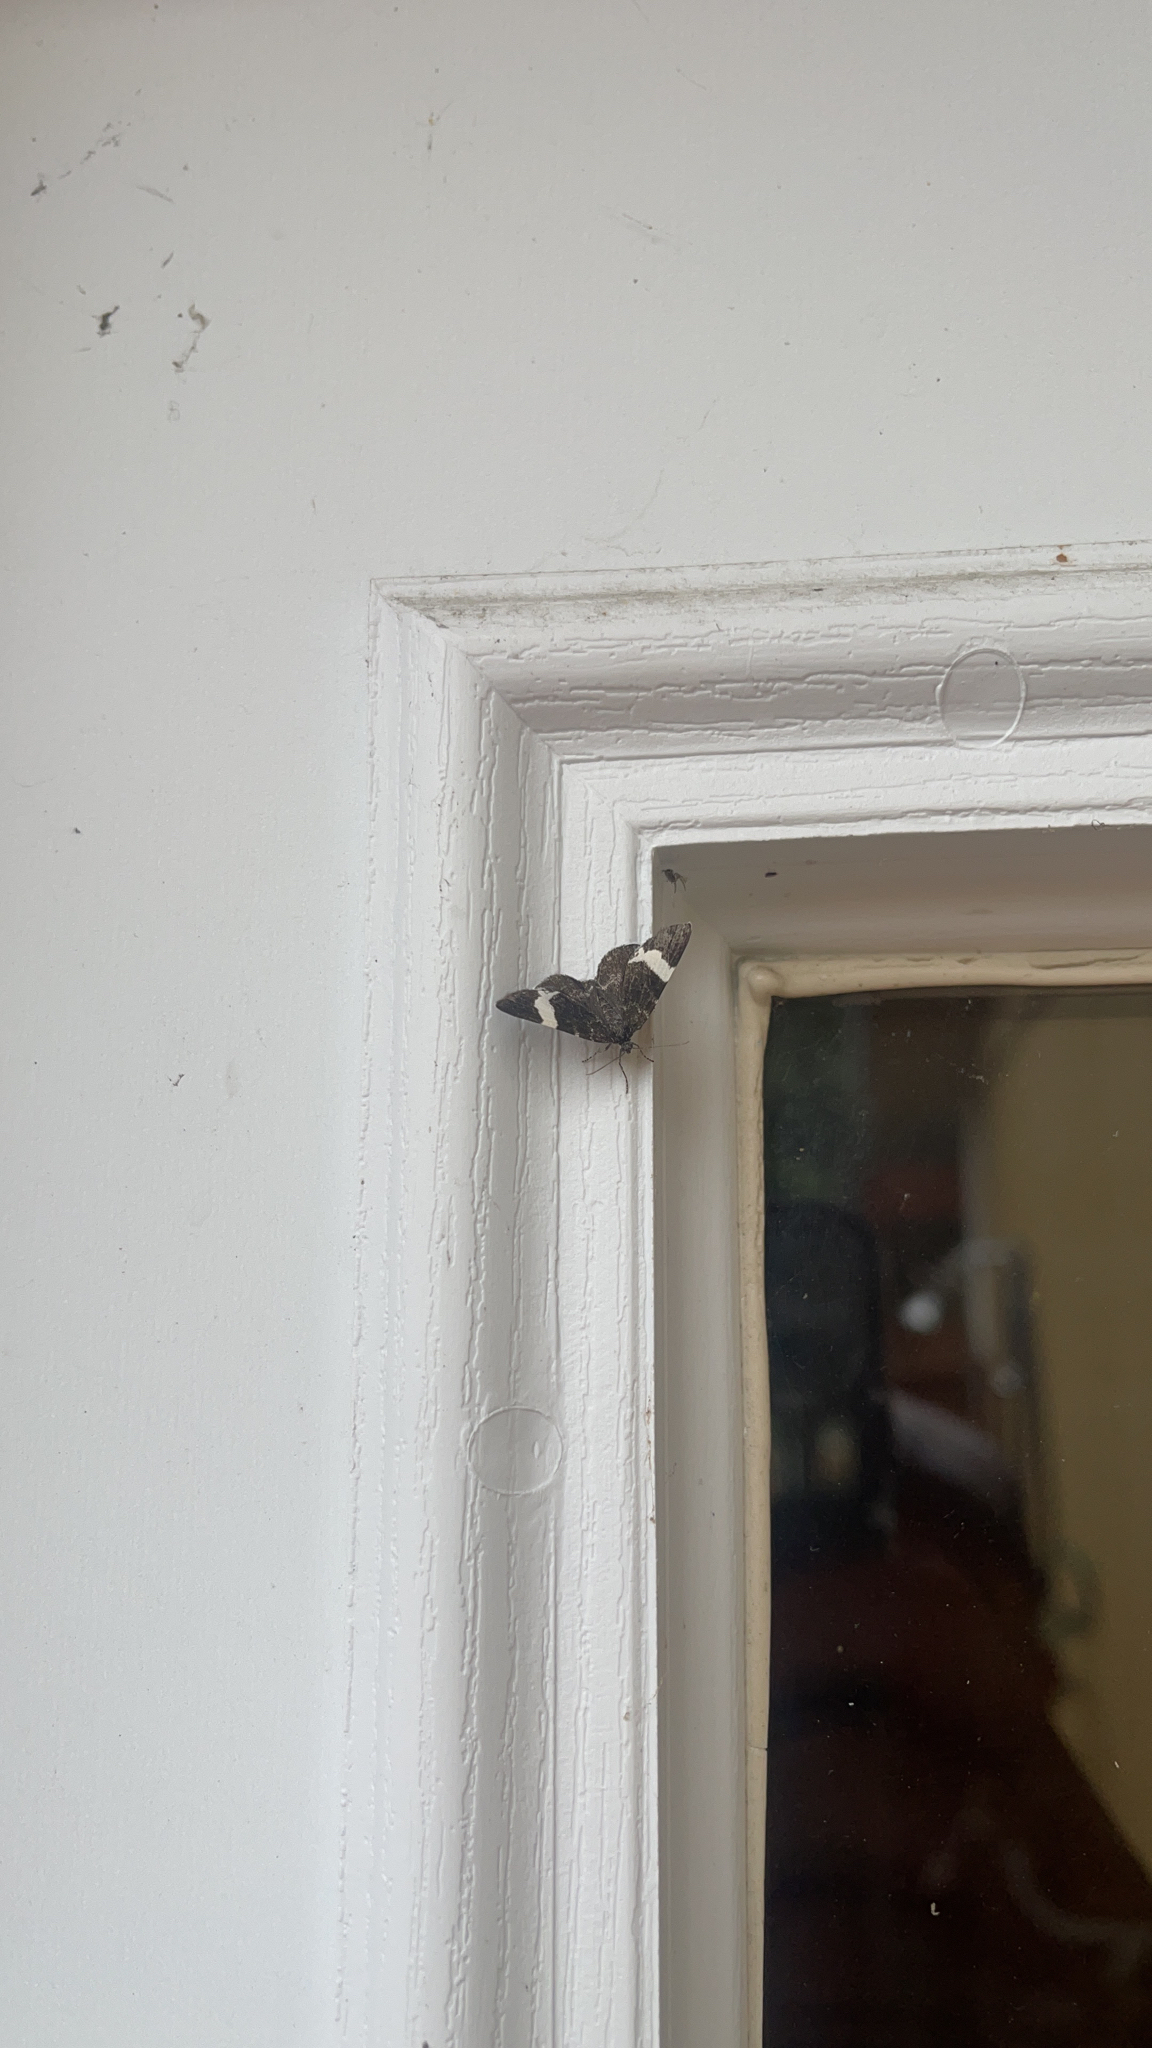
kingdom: Animalia
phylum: Arthropoda
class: Insecta
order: Lepidoptera
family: Geometridae
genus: Trichodezia
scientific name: Trichodezia albovittata
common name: White striped black
